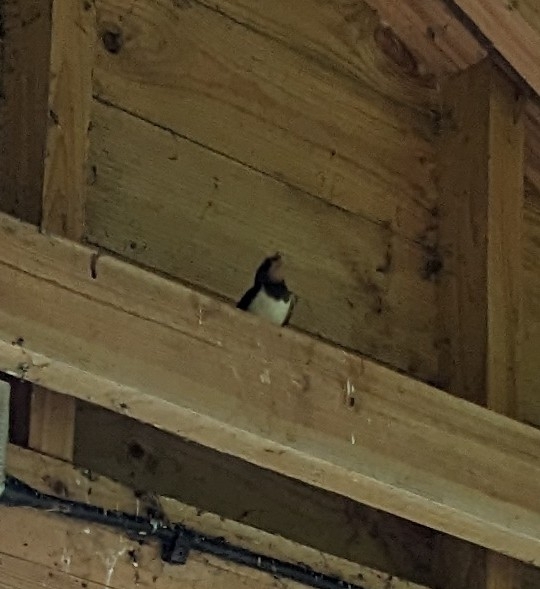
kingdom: Animalia
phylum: Chordata
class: Aves
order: Passeriformes
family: Hirundinidae
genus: Hirundo
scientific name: Hirundo rustica
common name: Barn swallow
